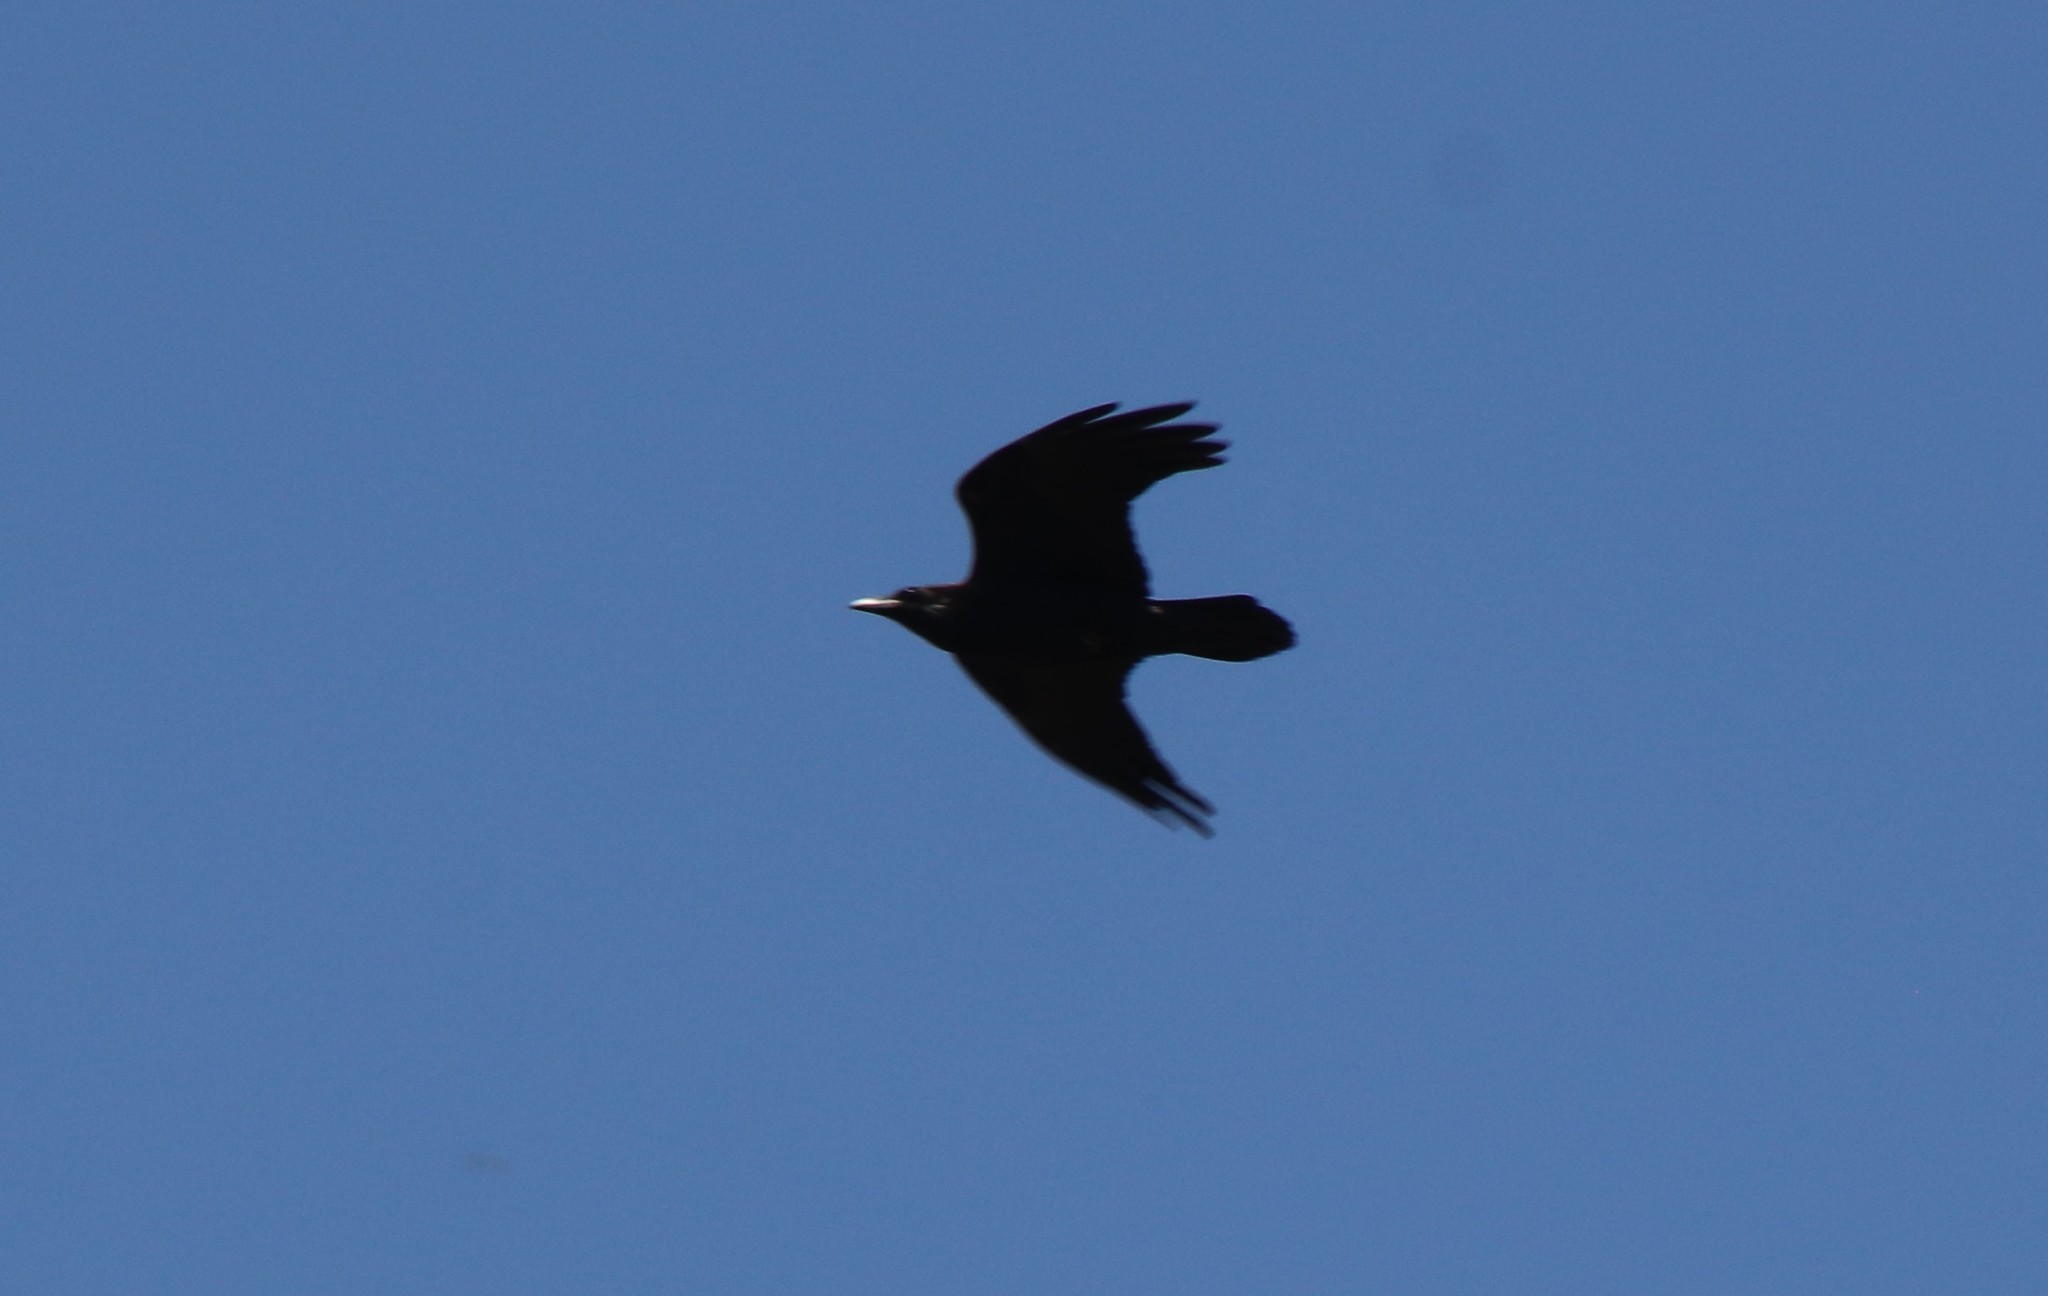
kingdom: Animalia
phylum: Chordata
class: Aves
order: Passeriformes
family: Corvidae
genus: Corvus
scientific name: Corvus corax
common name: Common raven
